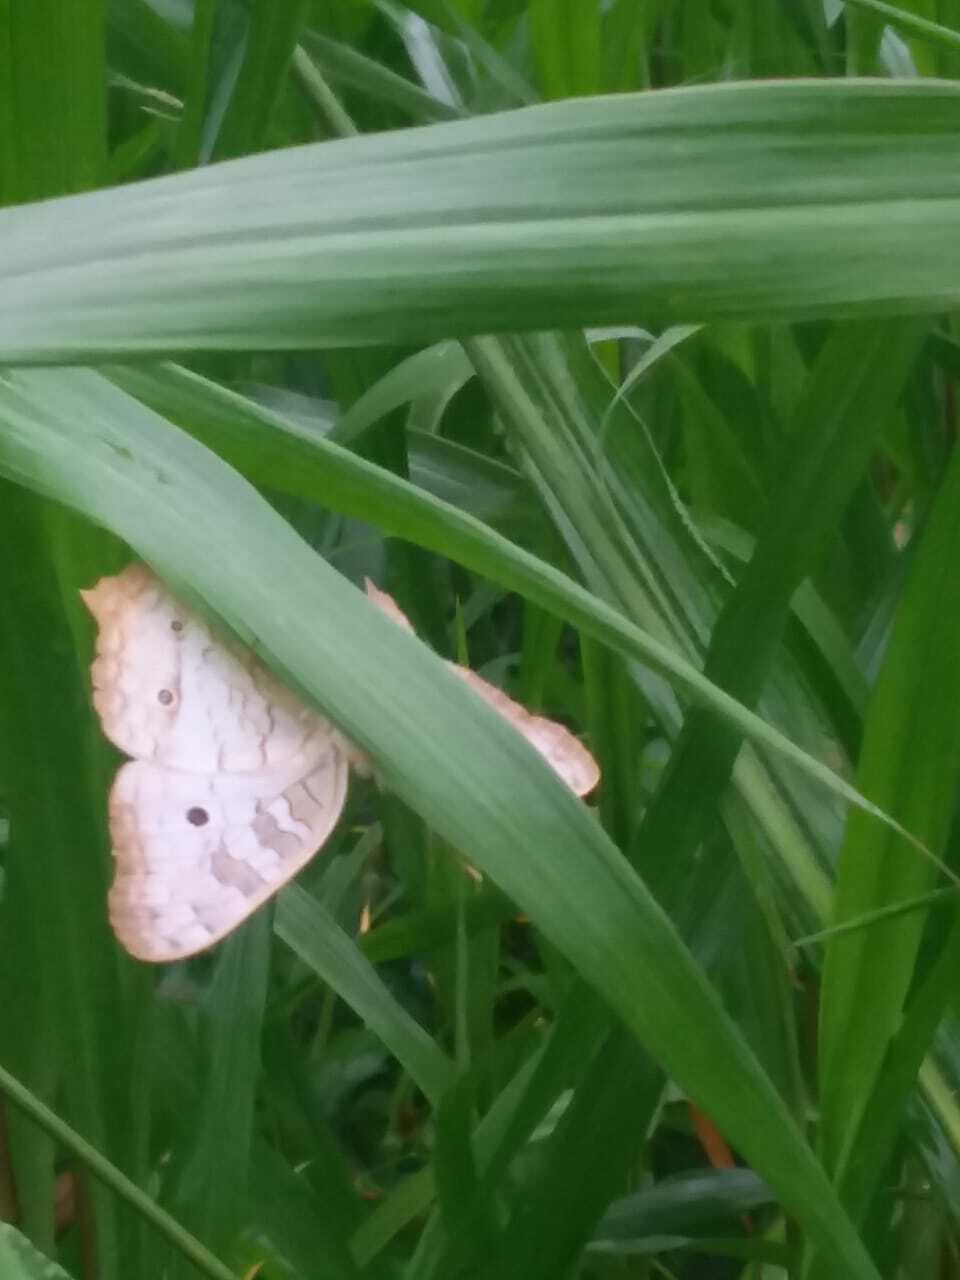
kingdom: Animalia
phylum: Arthropoda
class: Insecta
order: Lepidoptera
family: Nymphalidae
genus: Anartia
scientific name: Anartia jatrophae
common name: White peacock
